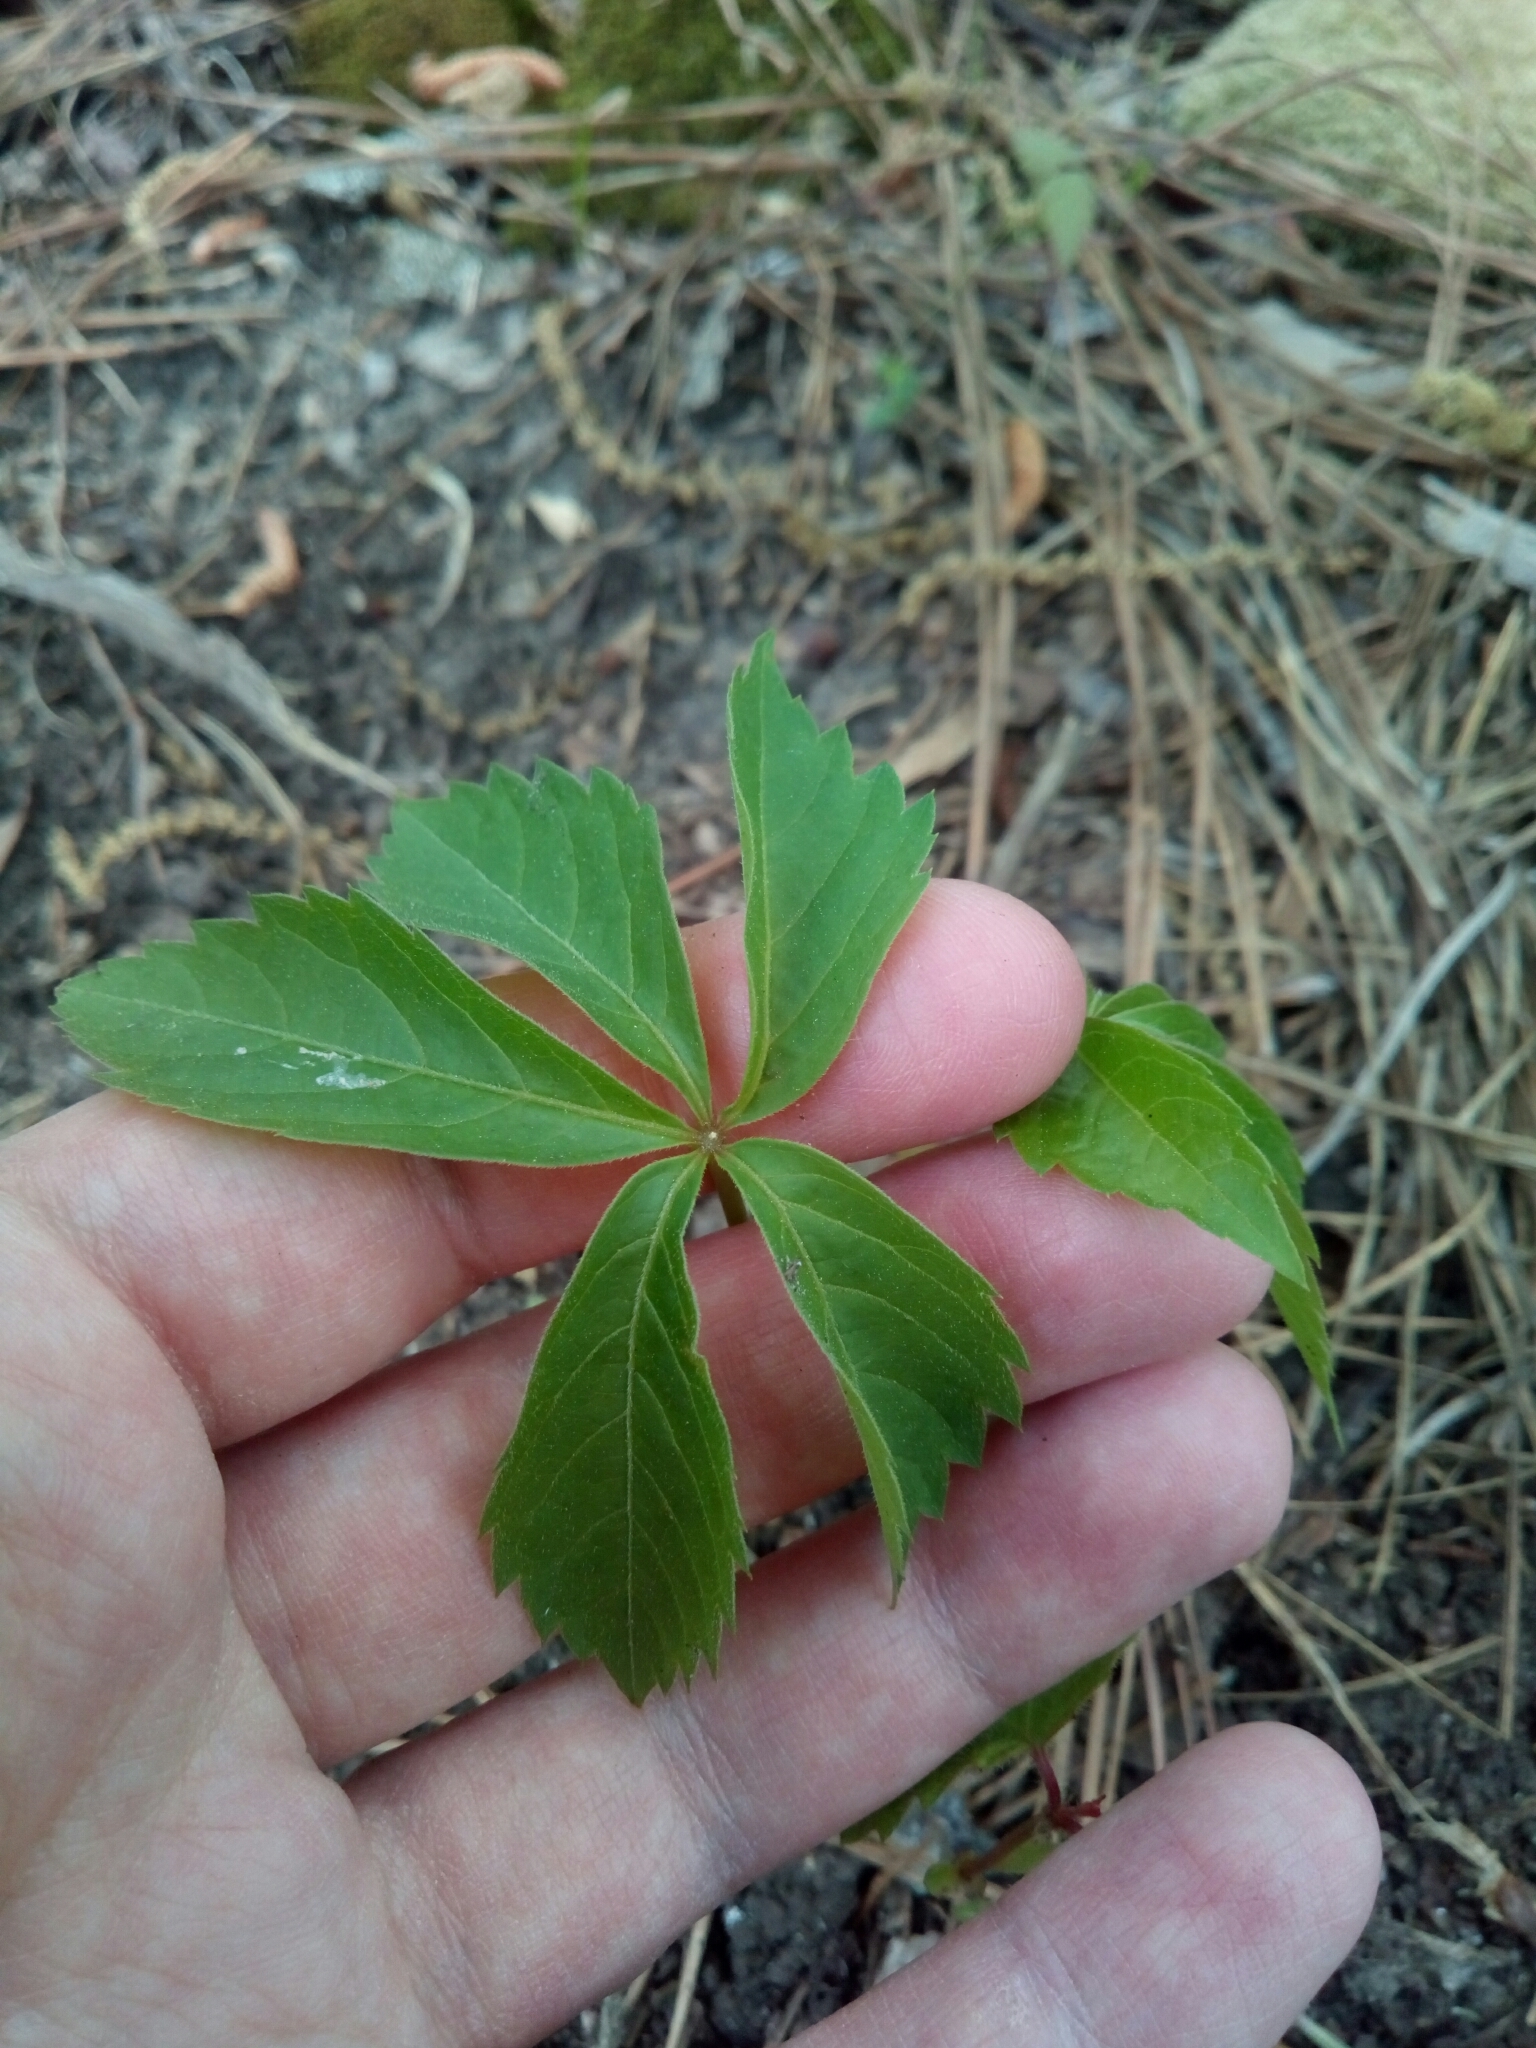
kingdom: Plantae
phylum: Tracheophyta
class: Magnoliopsida
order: Vitales
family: Vitaceae
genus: Parthenocissus
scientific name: Parthenocissus quinquefolia
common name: Virginia-creeper
